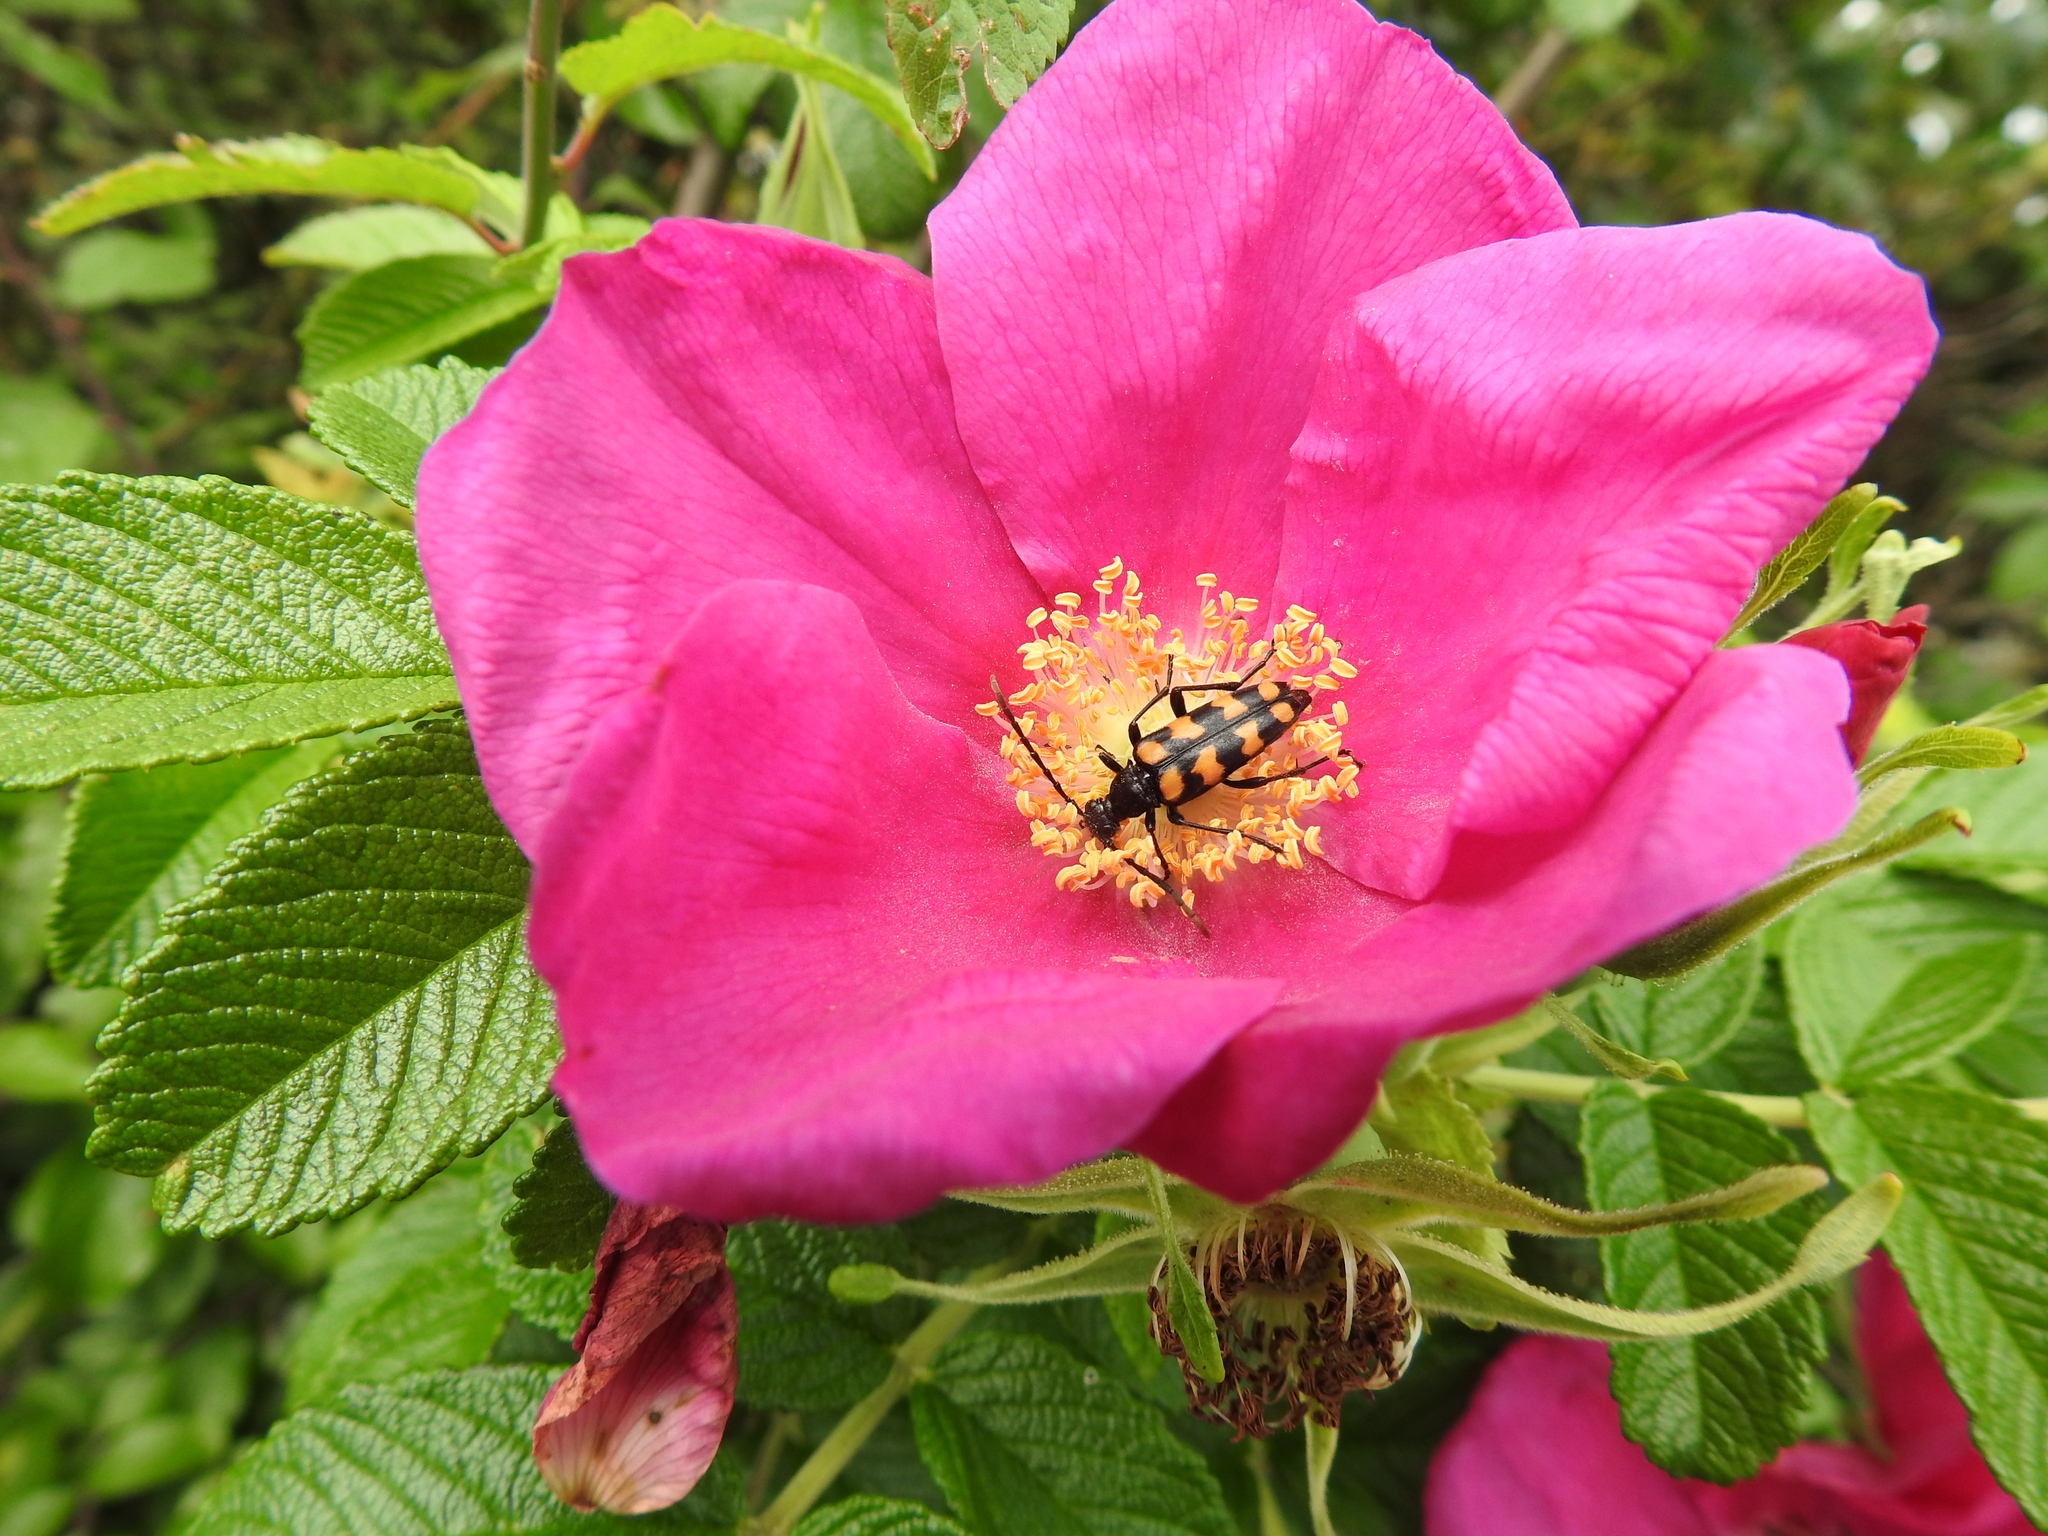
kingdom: Animalia
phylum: Arthropoda
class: Insecta
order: Coleoptera
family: Cerambycidae
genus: Leptura
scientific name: Leptura quadrifasciata
